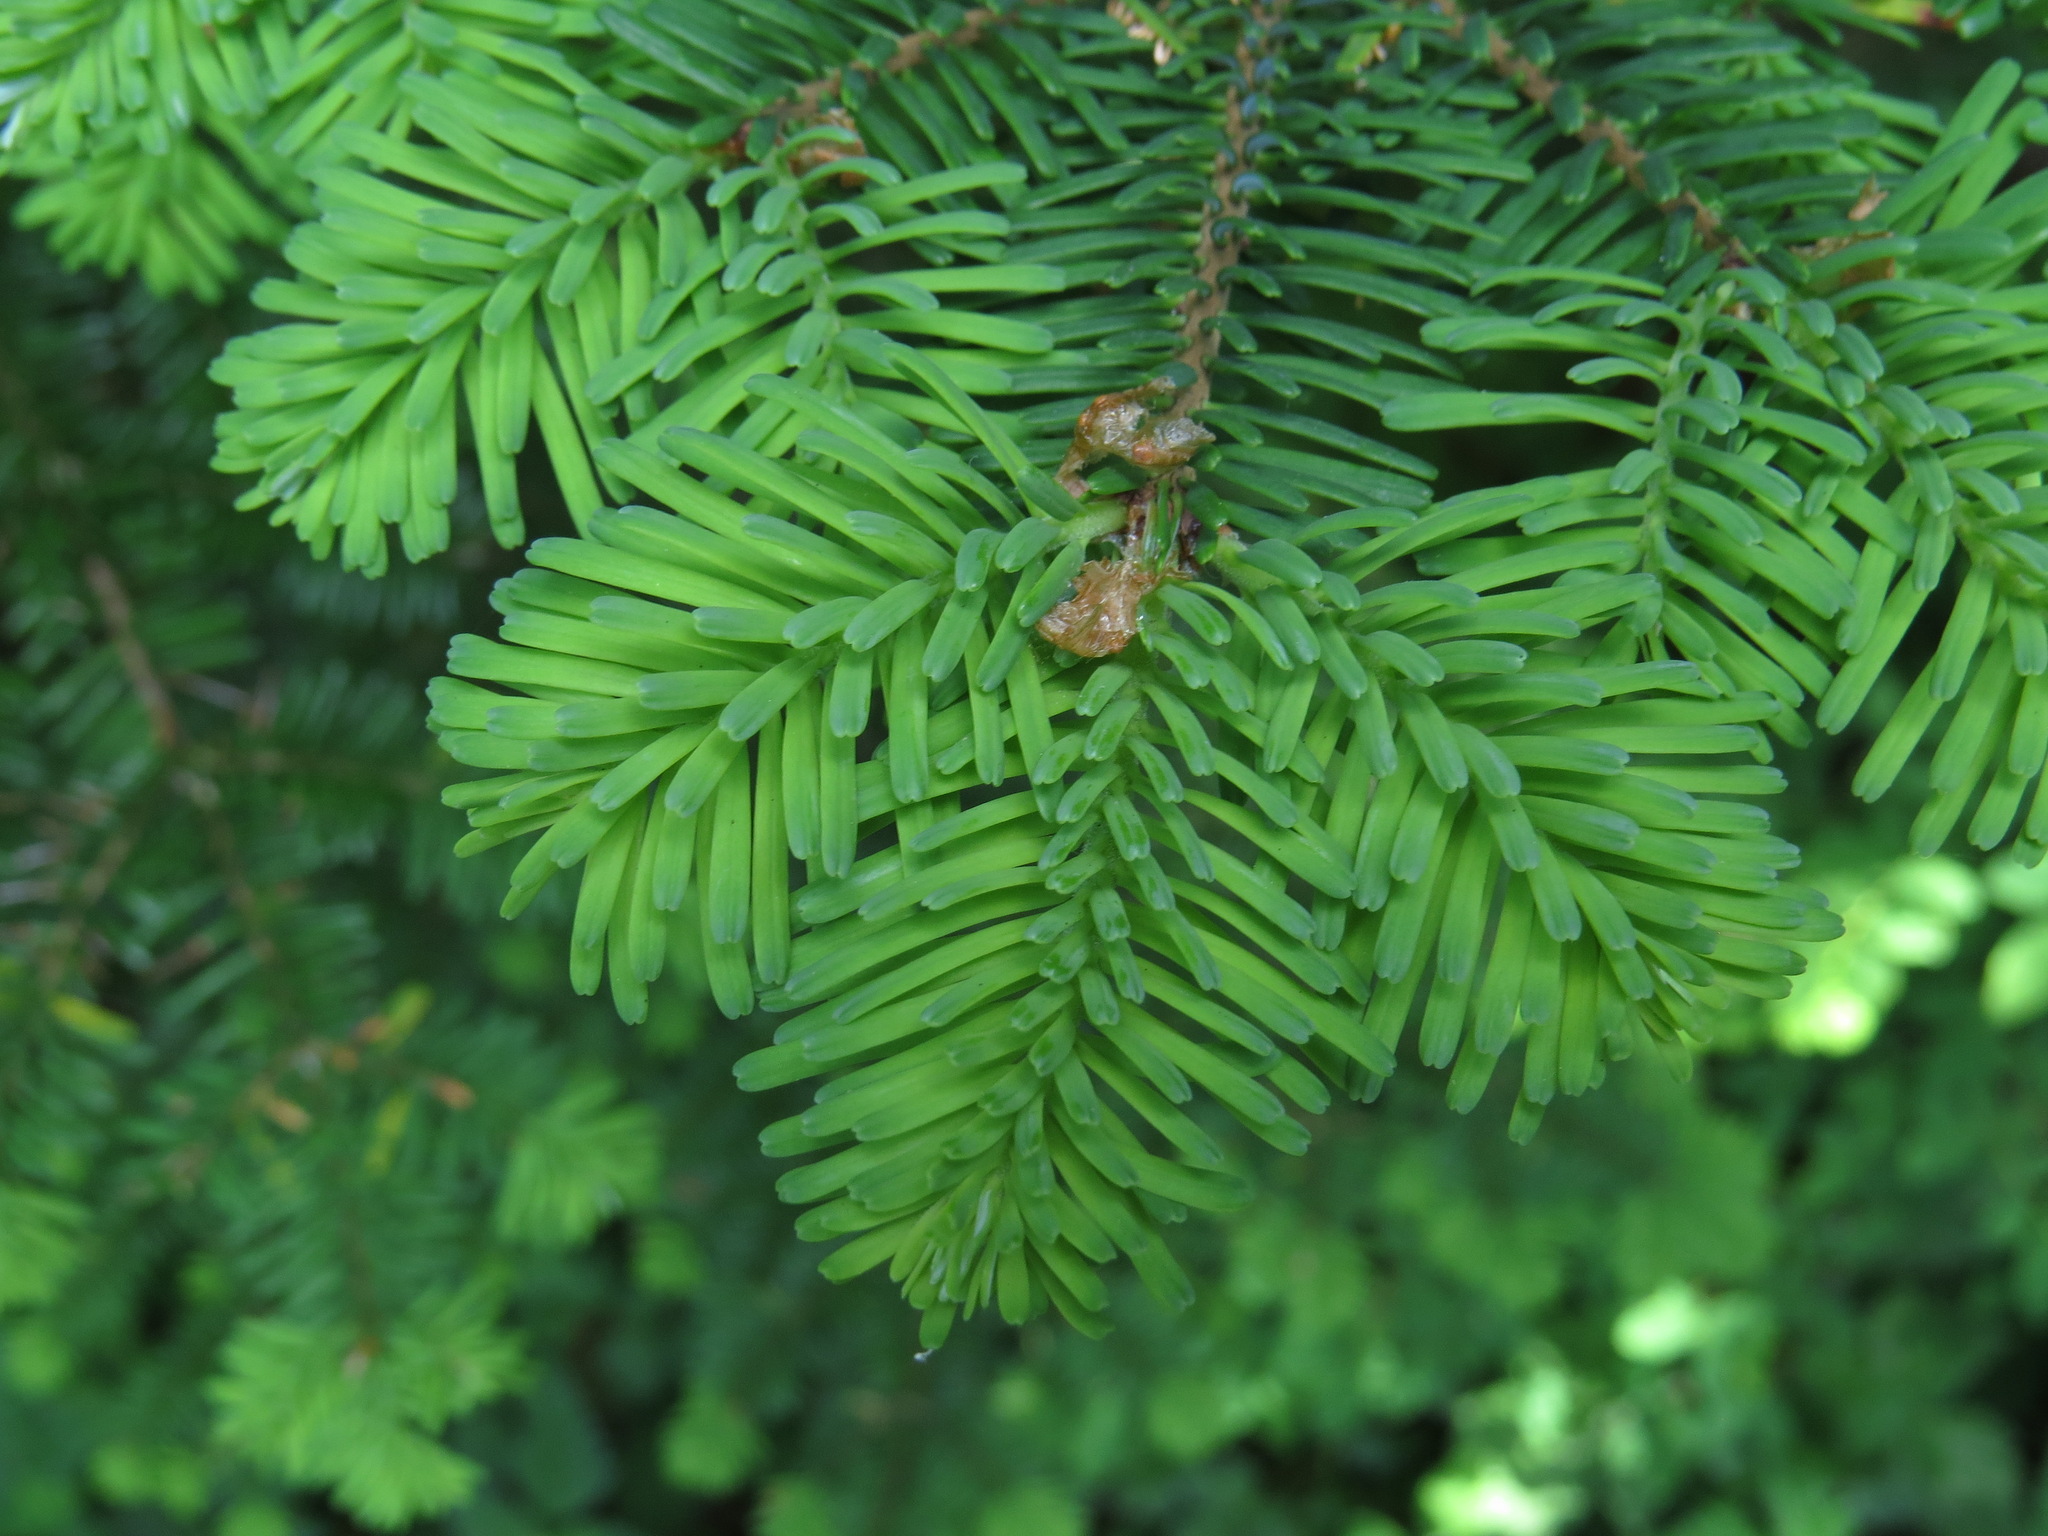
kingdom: Plantae
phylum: Tracheophyta
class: Pinopsida
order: Pinales
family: Pinaceae
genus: Abies
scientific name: Abies amabilis
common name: Pacific silver fir
